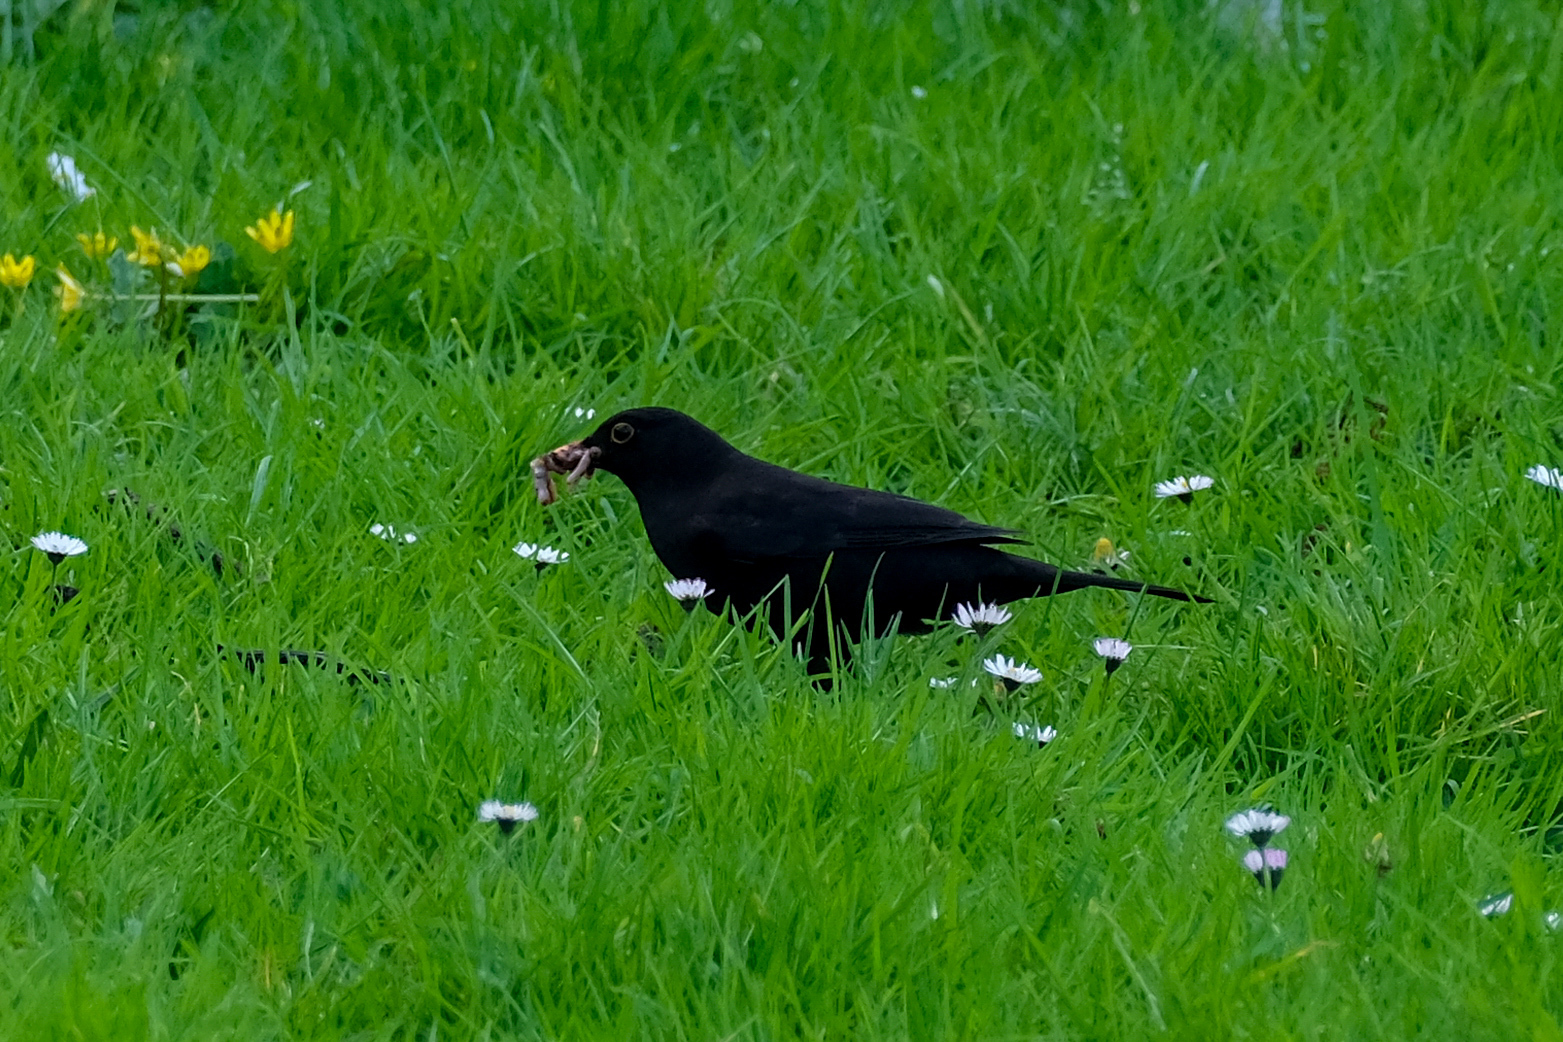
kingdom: Animalia
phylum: Chordata
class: Aves
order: Passeriformes
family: Turdidae
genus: Turdus
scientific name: Turdus merula
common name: Common blackbird
